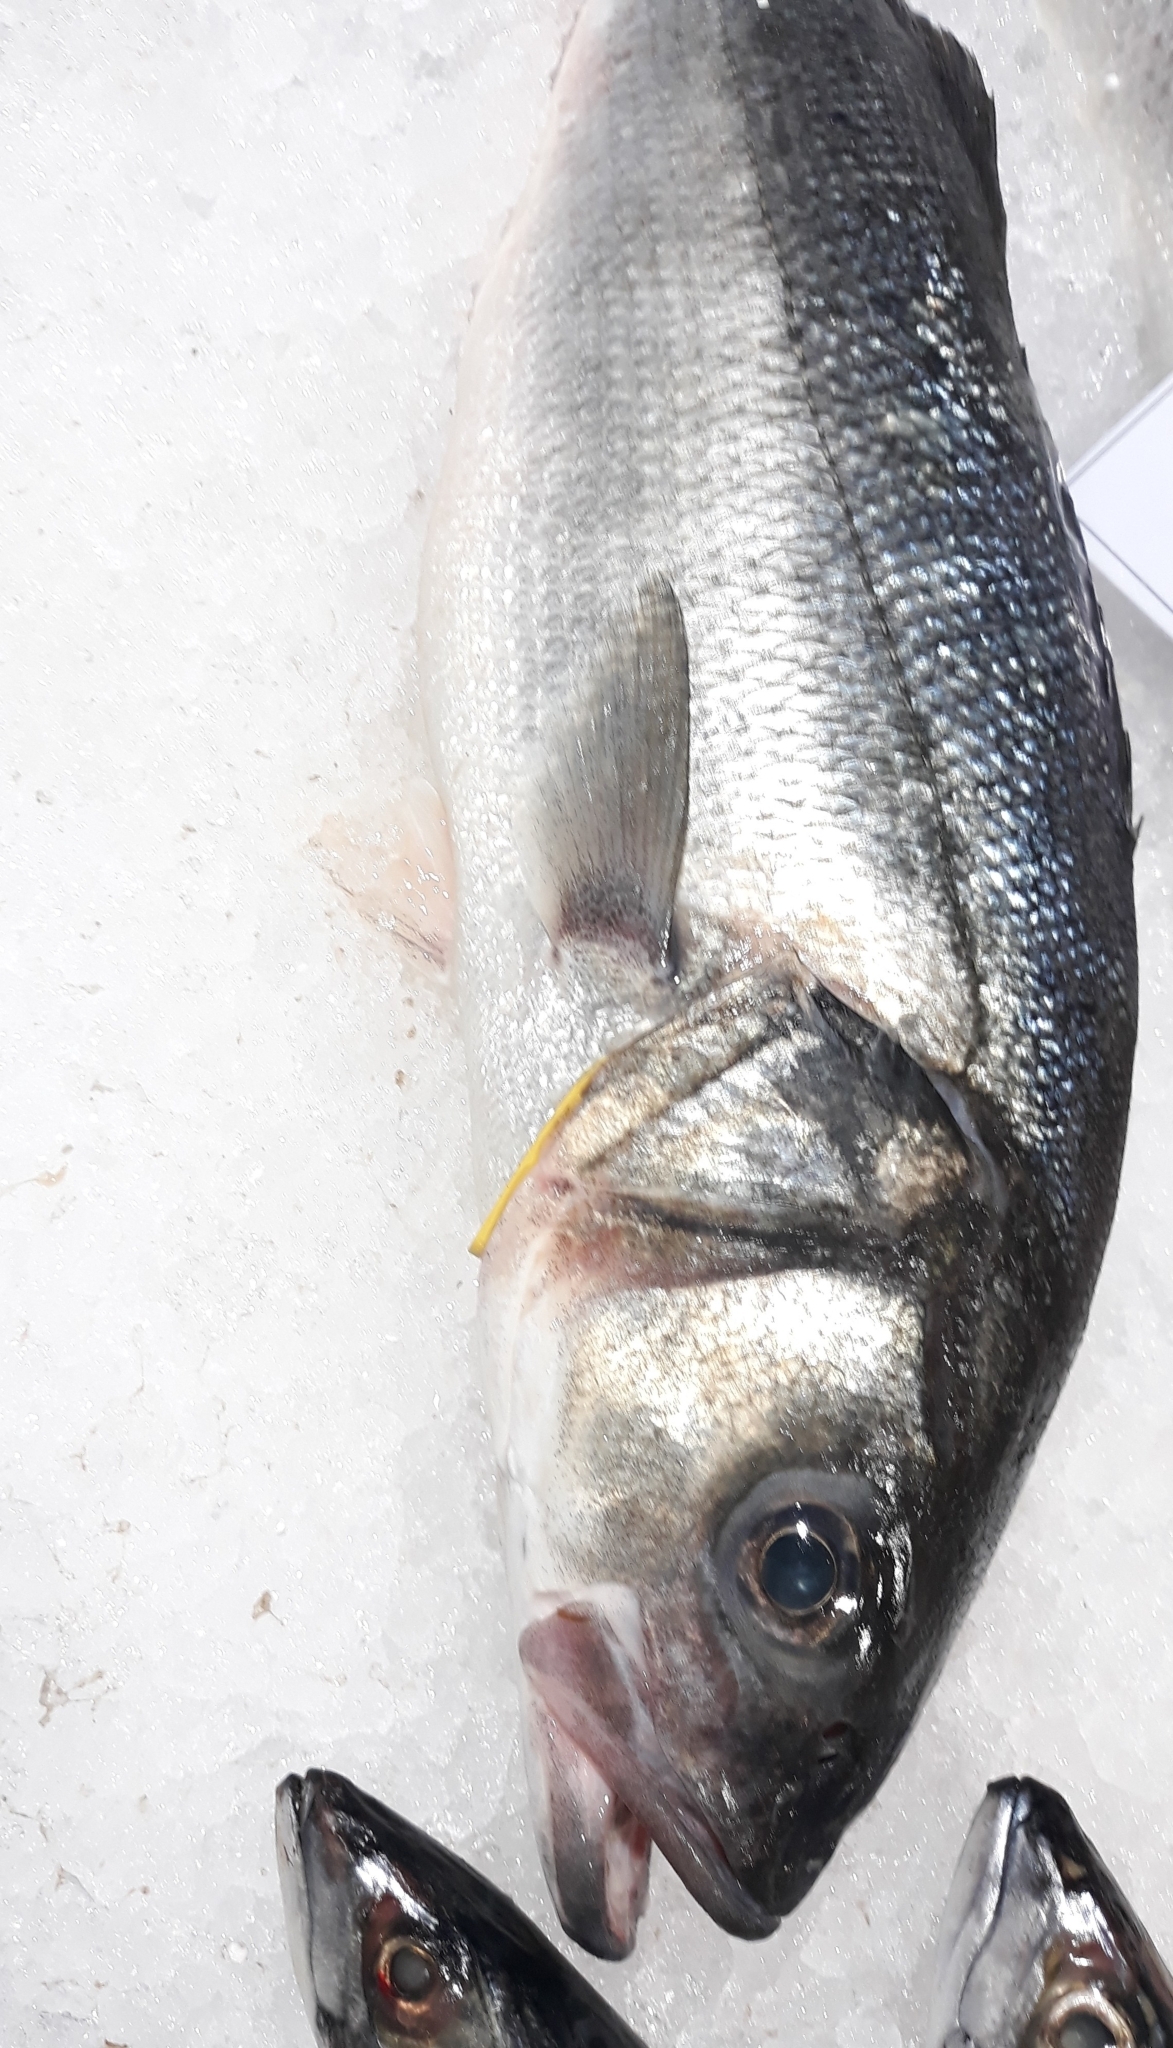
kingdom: Animalia
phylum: Chordata
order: Perciformes
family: Moronidae
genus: Dicentrarchus
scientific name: Dicentrarchus labrax
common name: European seabass
